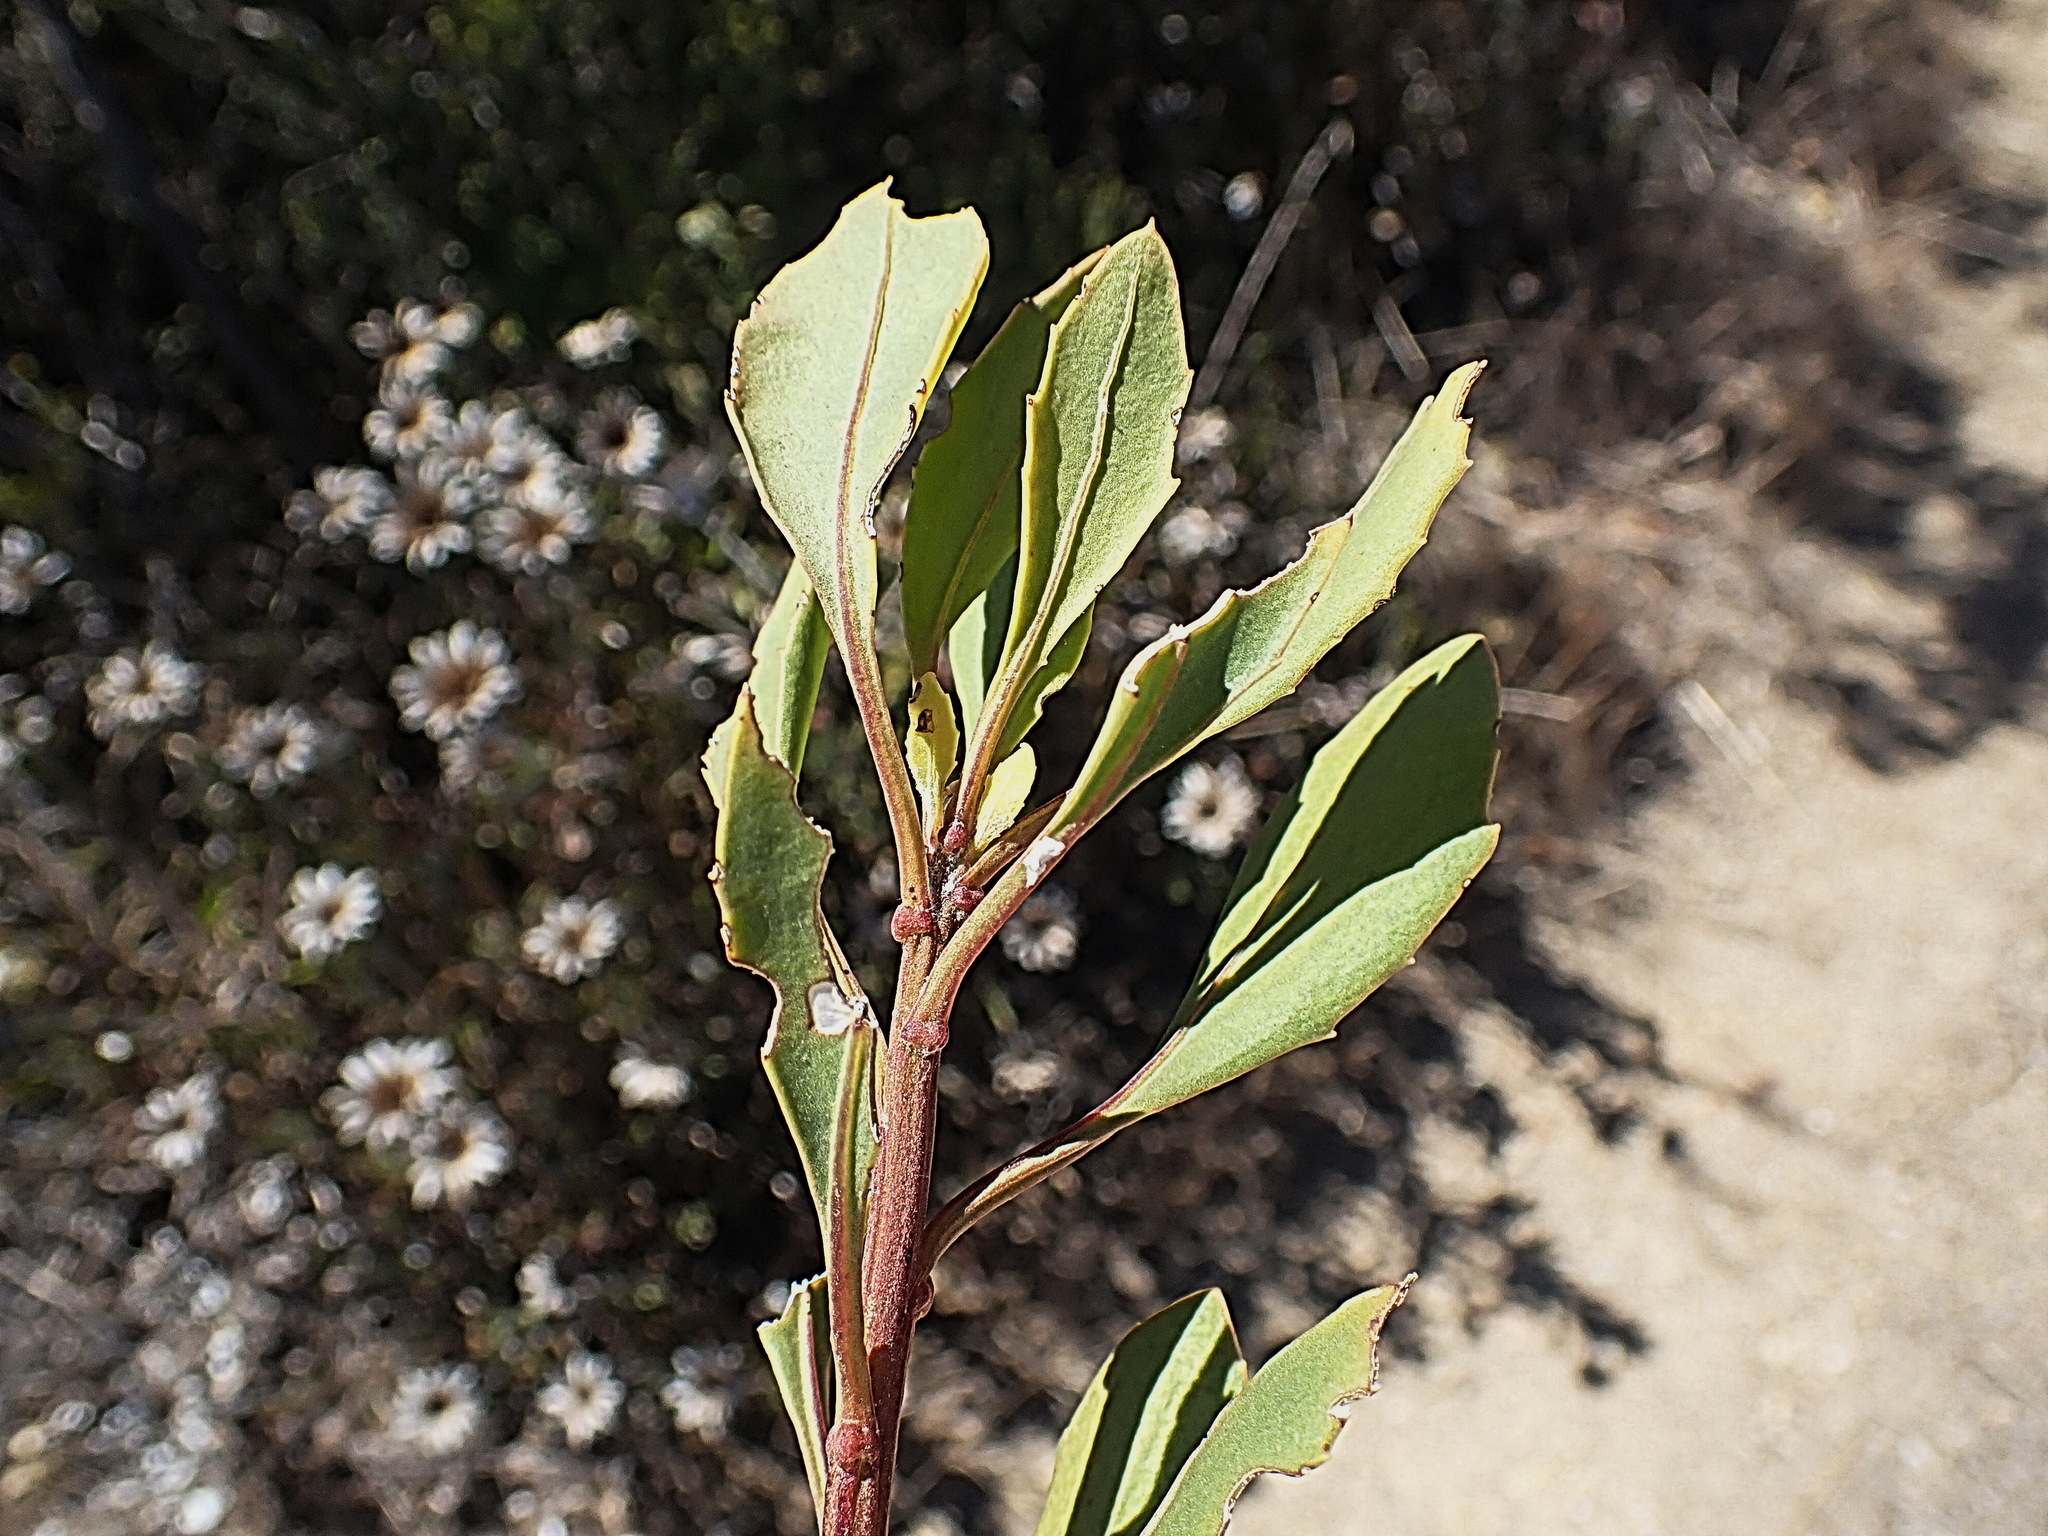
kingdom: Plantae
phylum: Tracheophyta
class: Magnoliopsida
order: Asterales
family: Asteraceae
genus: Osteospermum
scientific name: Osteospermum moniliferum
